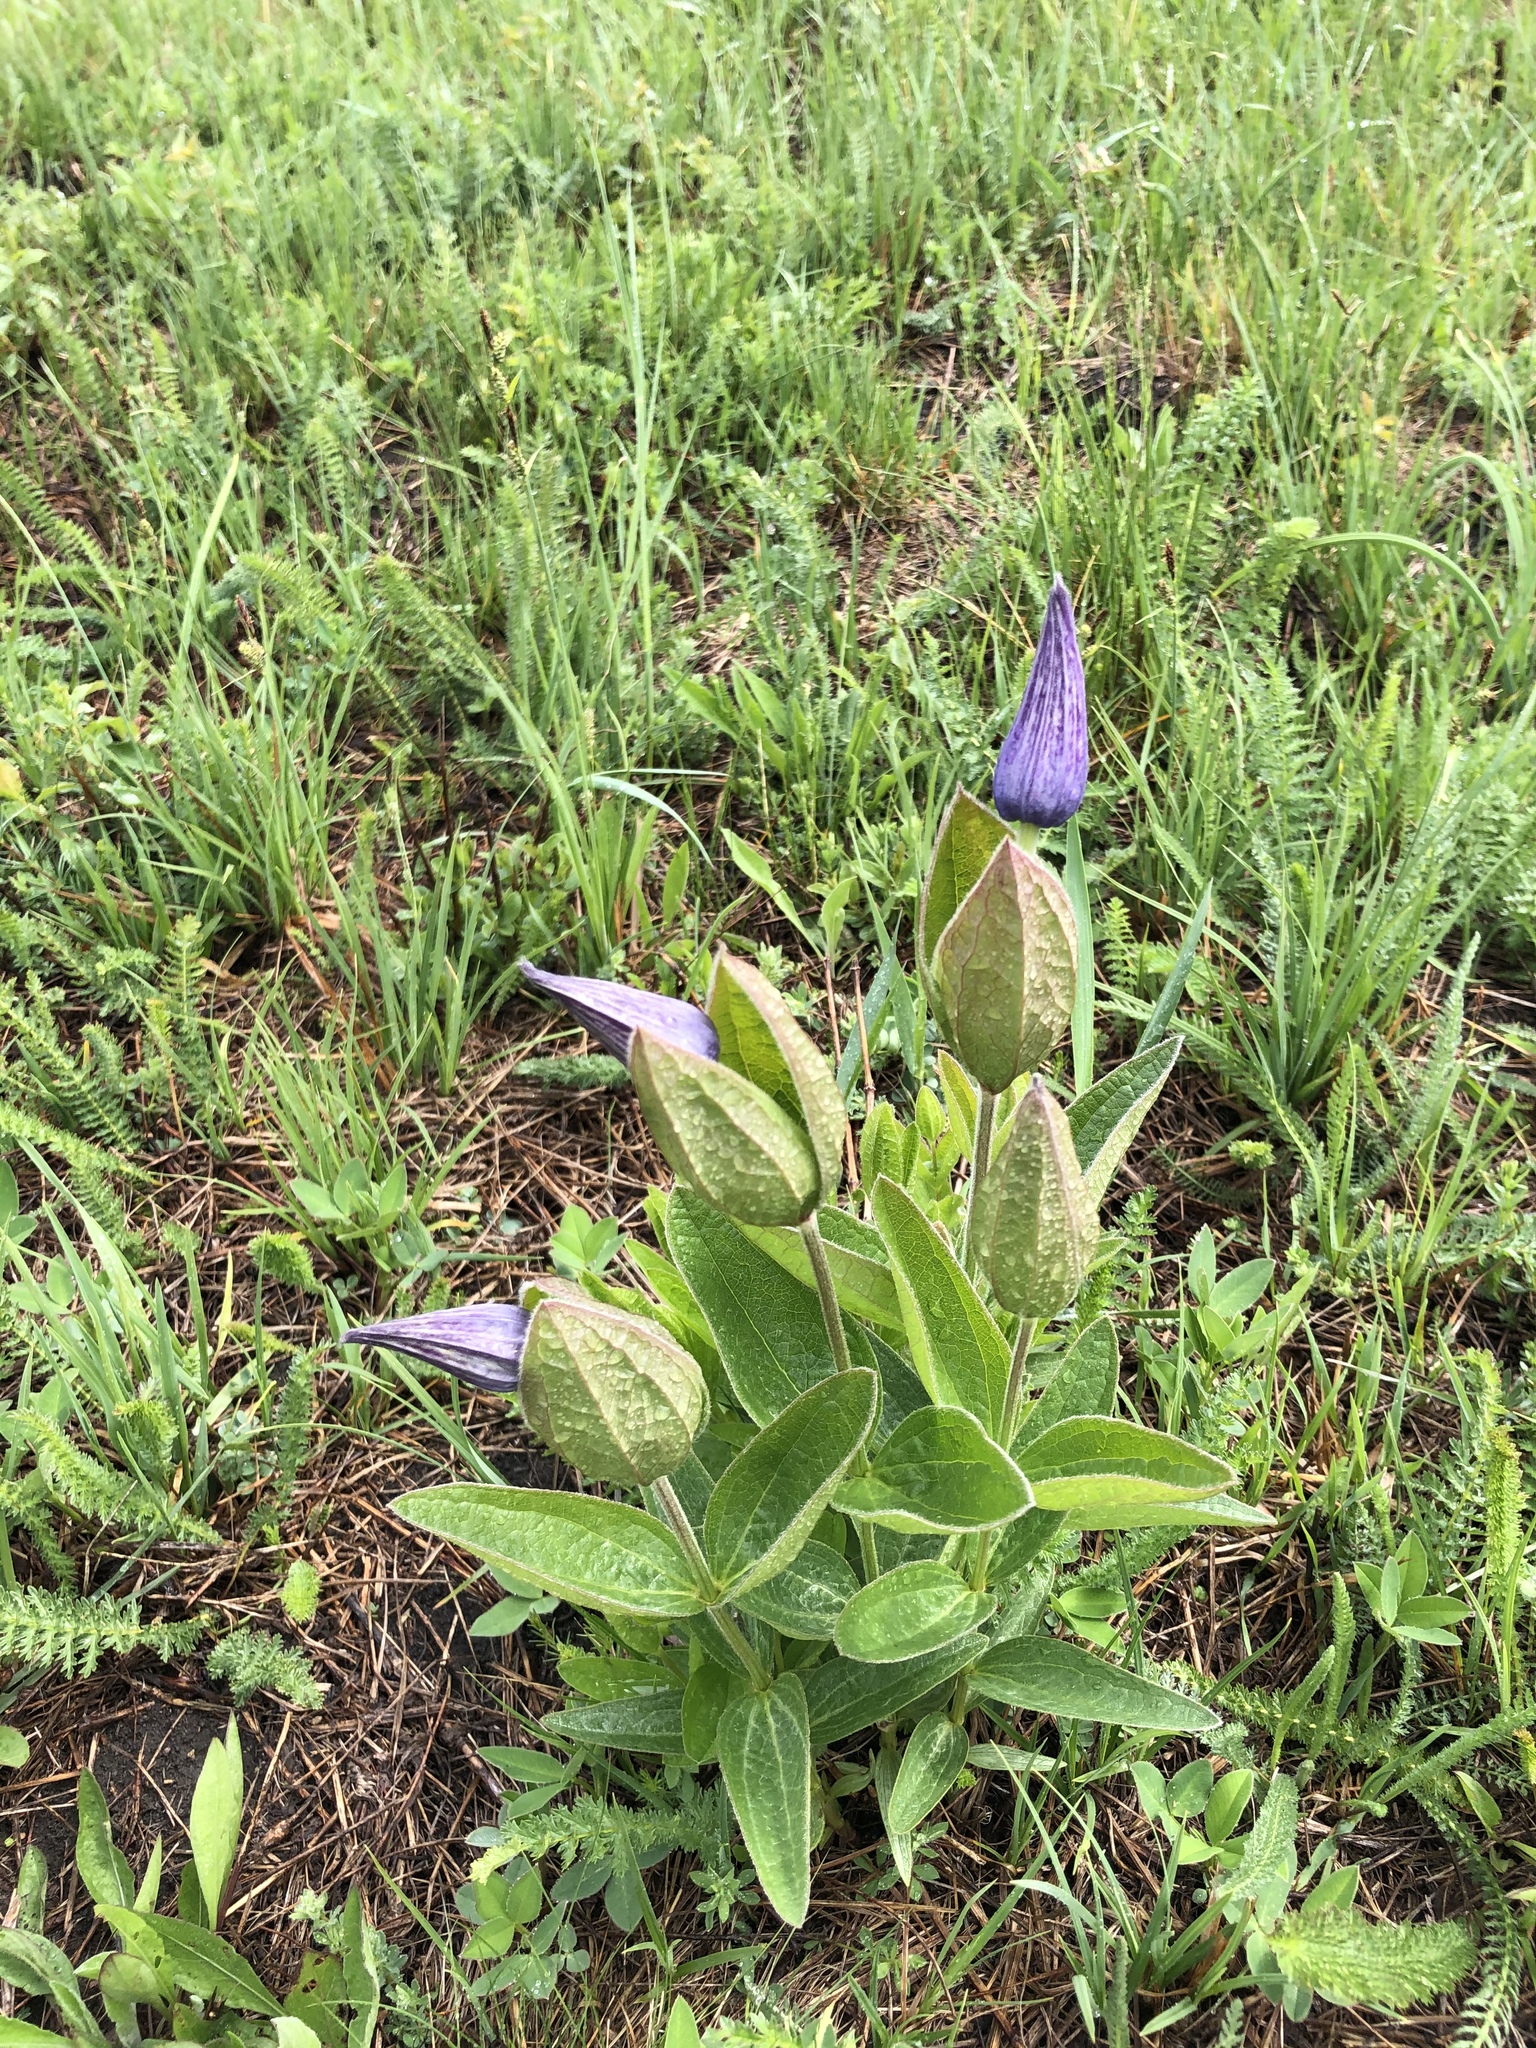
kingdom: Plantae
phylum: Tracheophyta
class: Magnoliopsida
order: Ranunculales
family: Ranunculaceae
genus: Clematis
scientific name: Clematis integrifolia
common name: Solitary clematis
